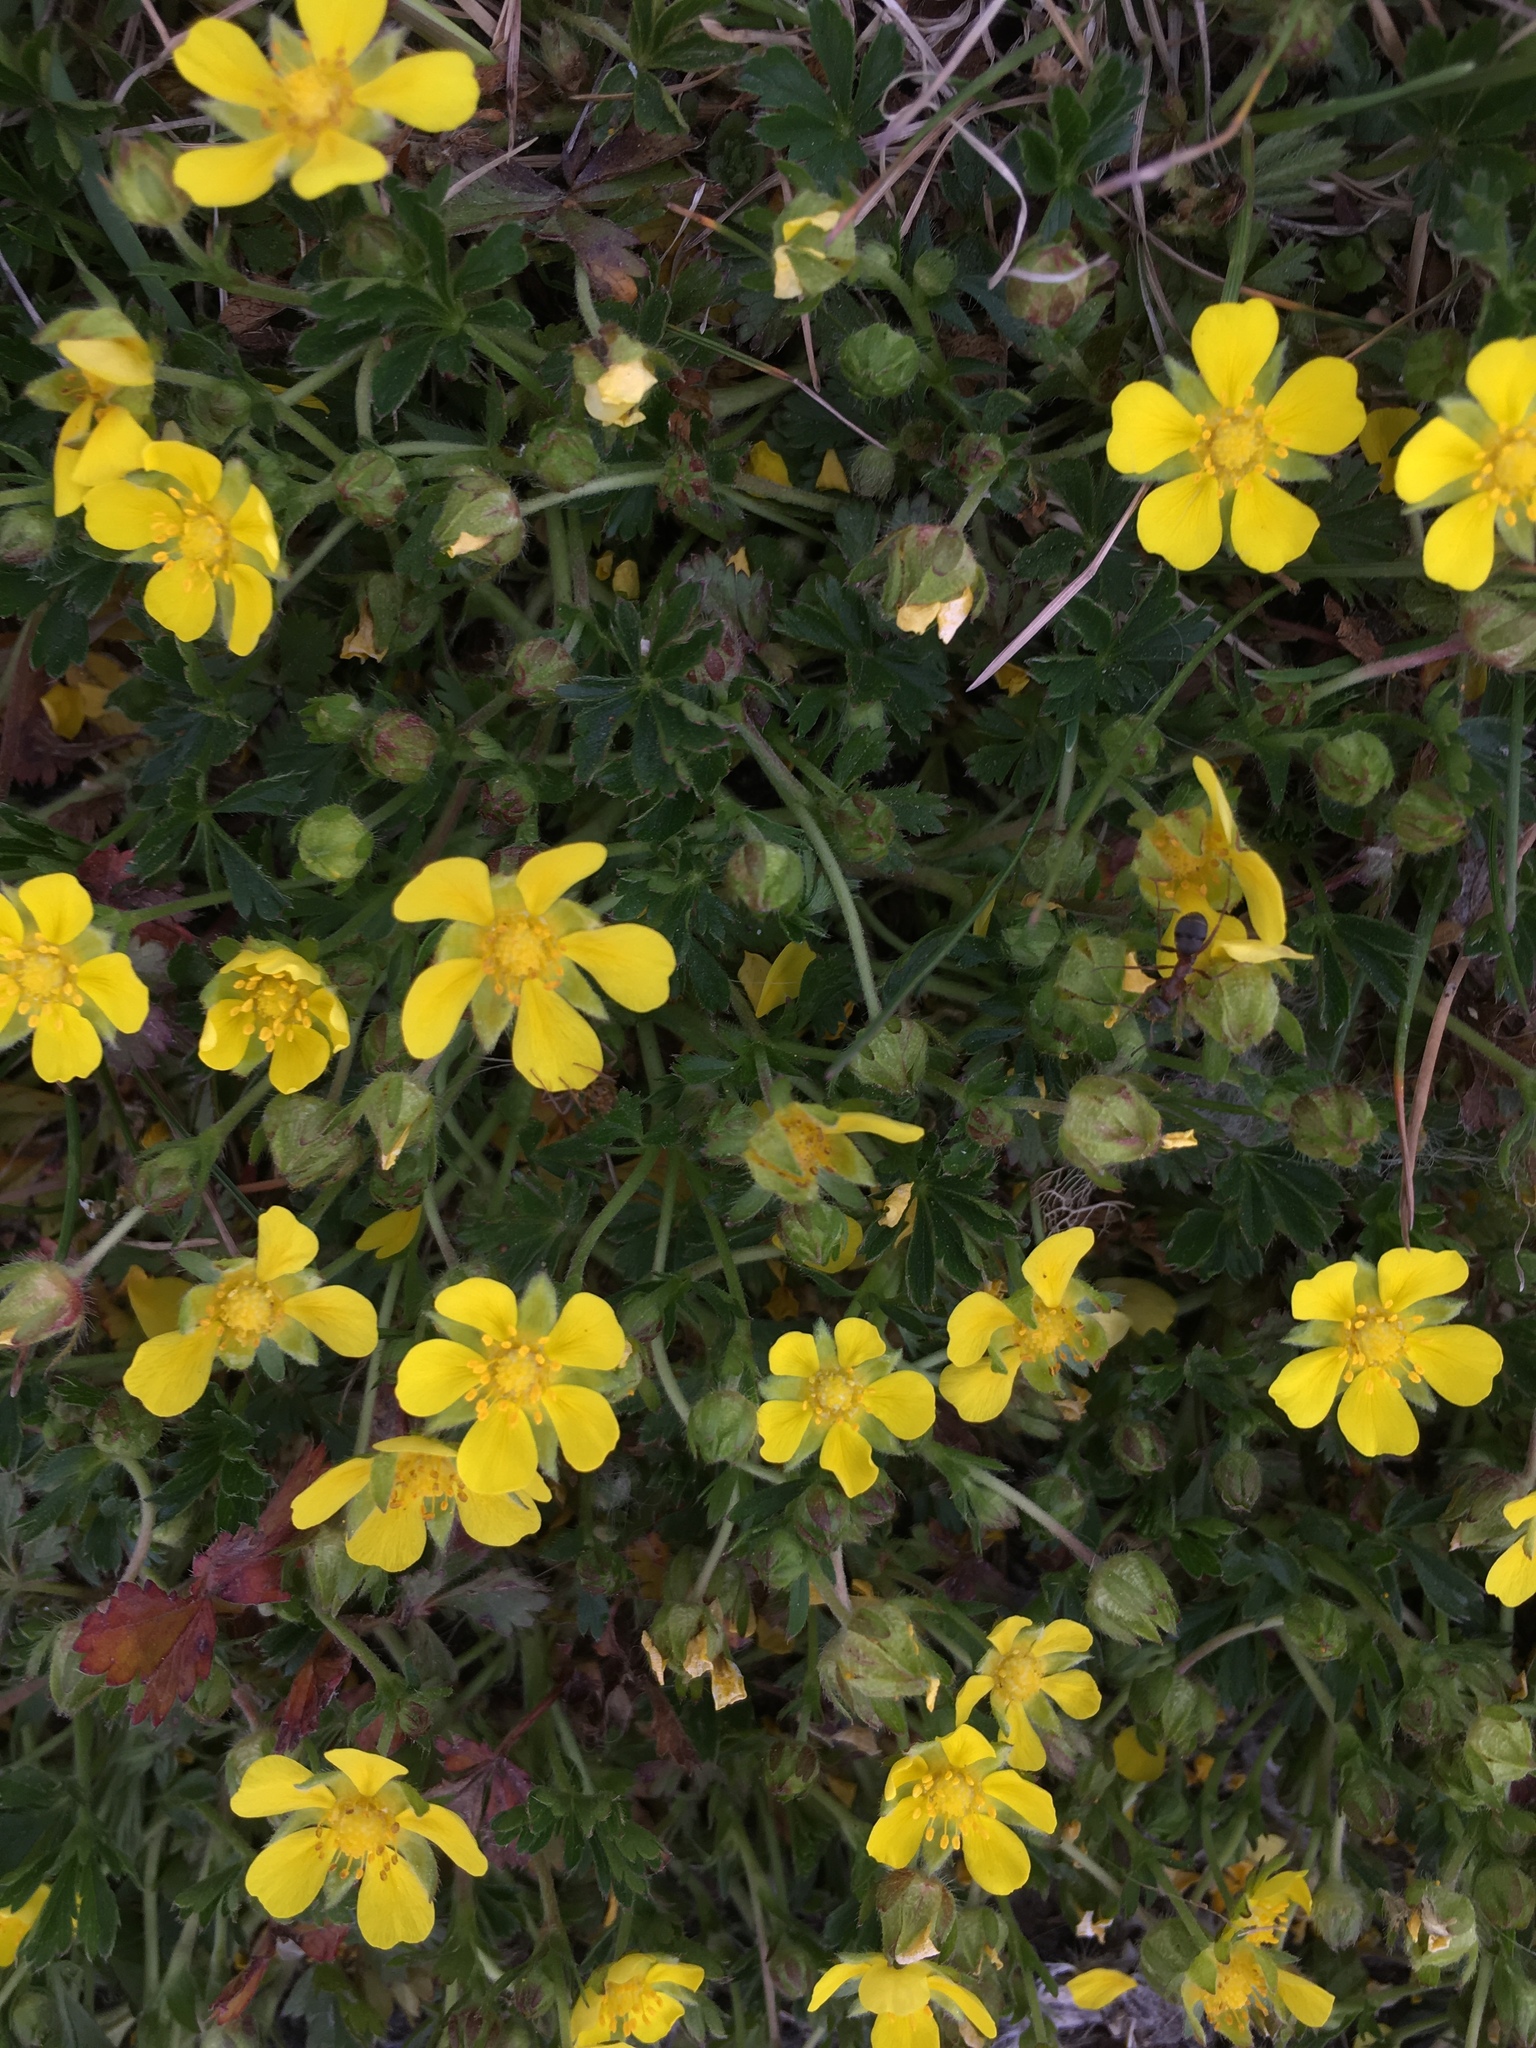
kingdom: Plantae
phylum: Tracheophyta
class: Magnoliopsida
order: Rosales
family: Rosaceae
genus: Potentilla
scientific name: Potentilla verna
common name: Spring cinquefoil
